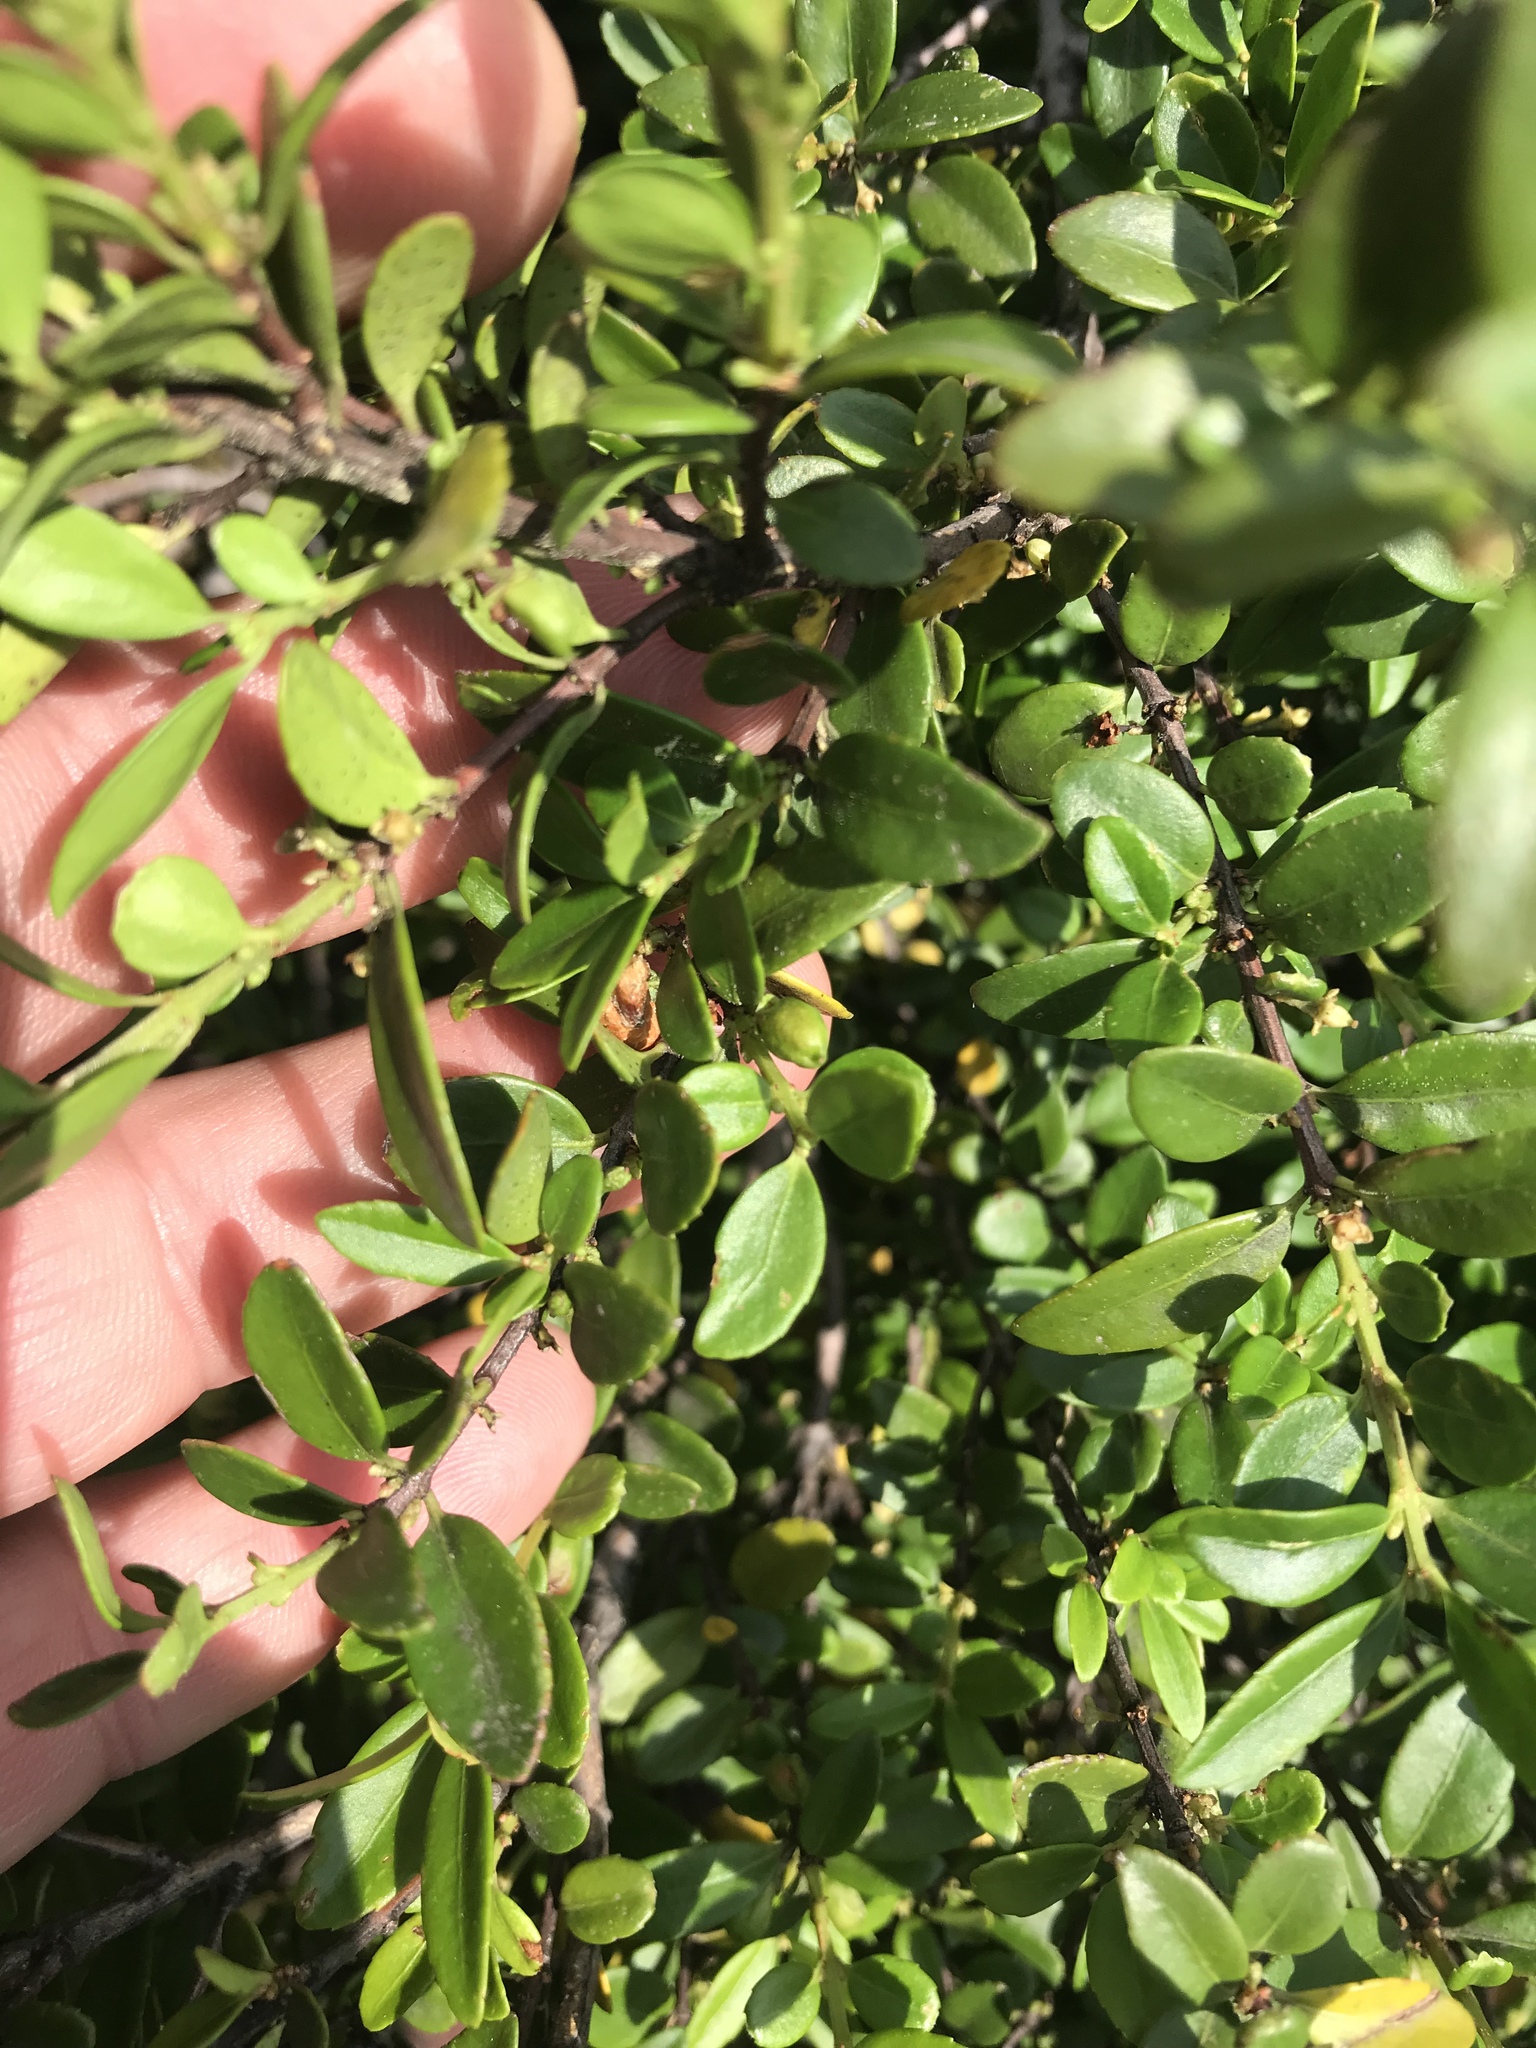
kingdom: Plantae
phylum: Tracheophyta
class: Magnoliopsida
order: Celastrales
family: Celastraceae
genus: Paxistima
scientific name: Paxistima myrsinites
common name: Mountain-lover
